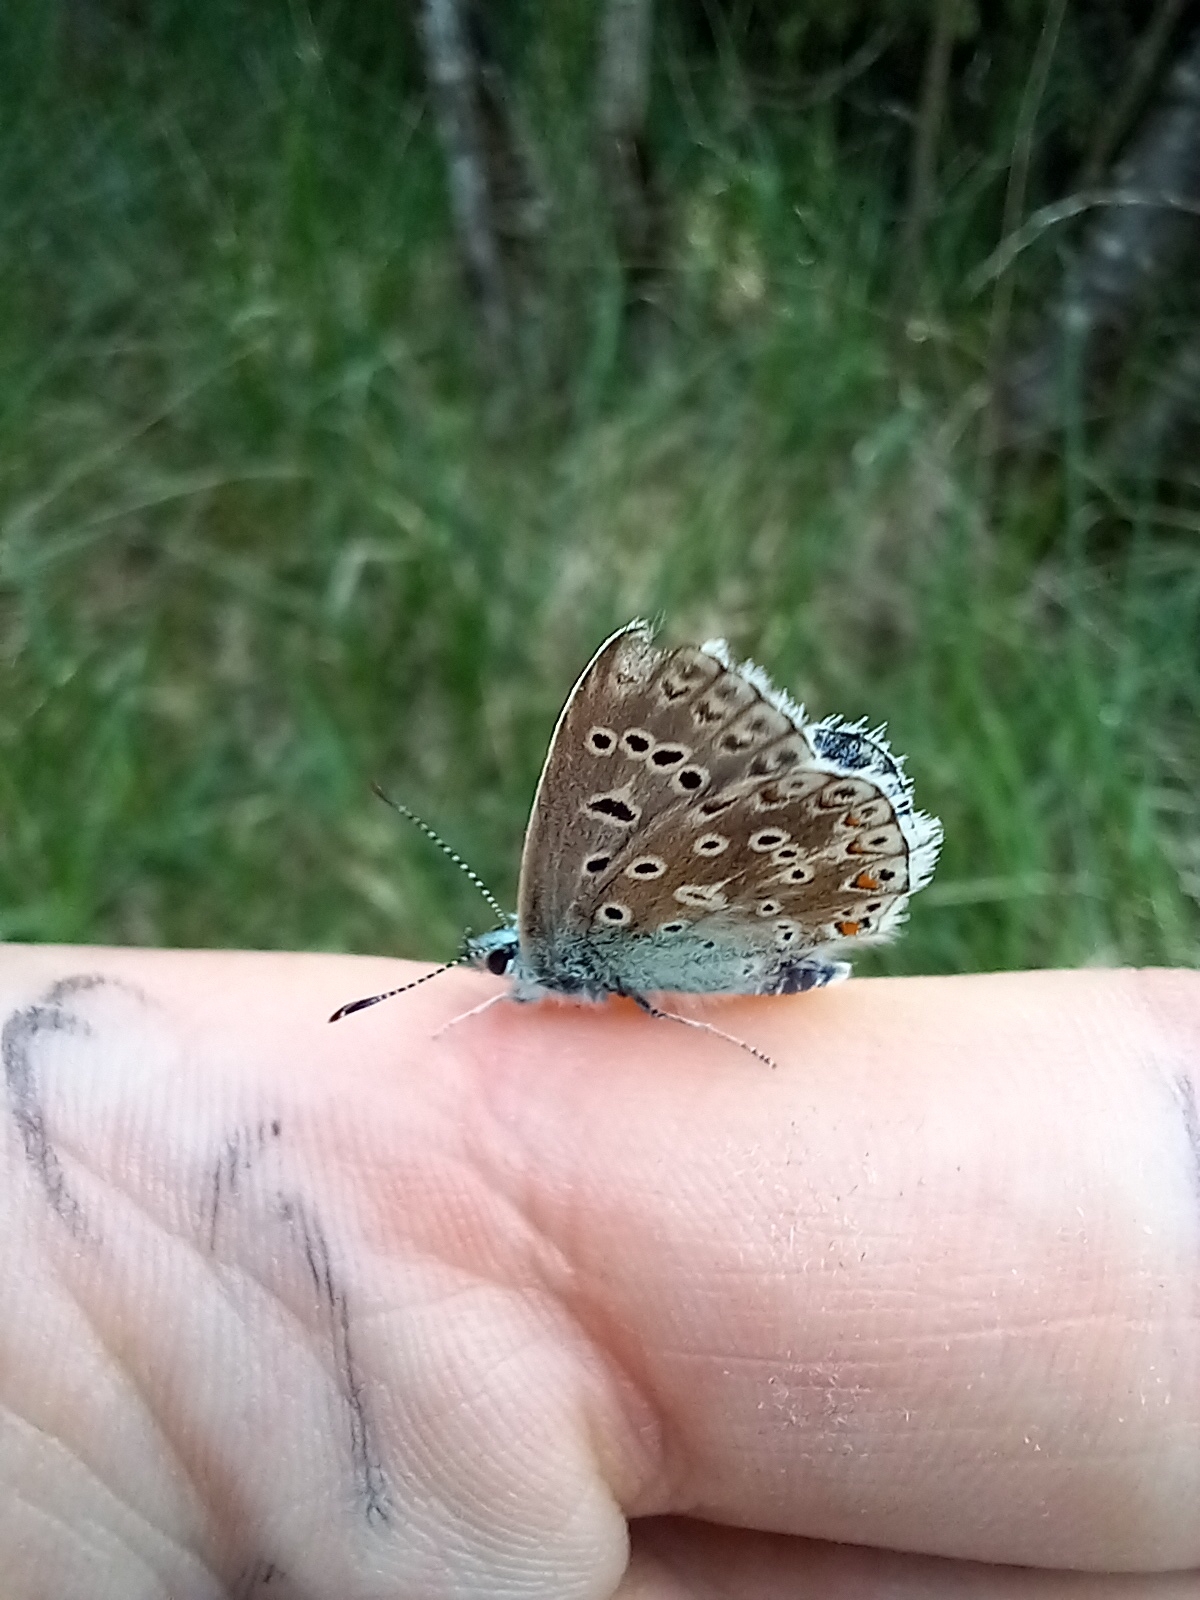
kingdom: Animalia
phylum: Arthropoda
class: Insecta
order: Lepidoptera
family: Lycaenidae
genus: Lysandra
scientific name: Lysandra bellargus
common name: Adonis blue
